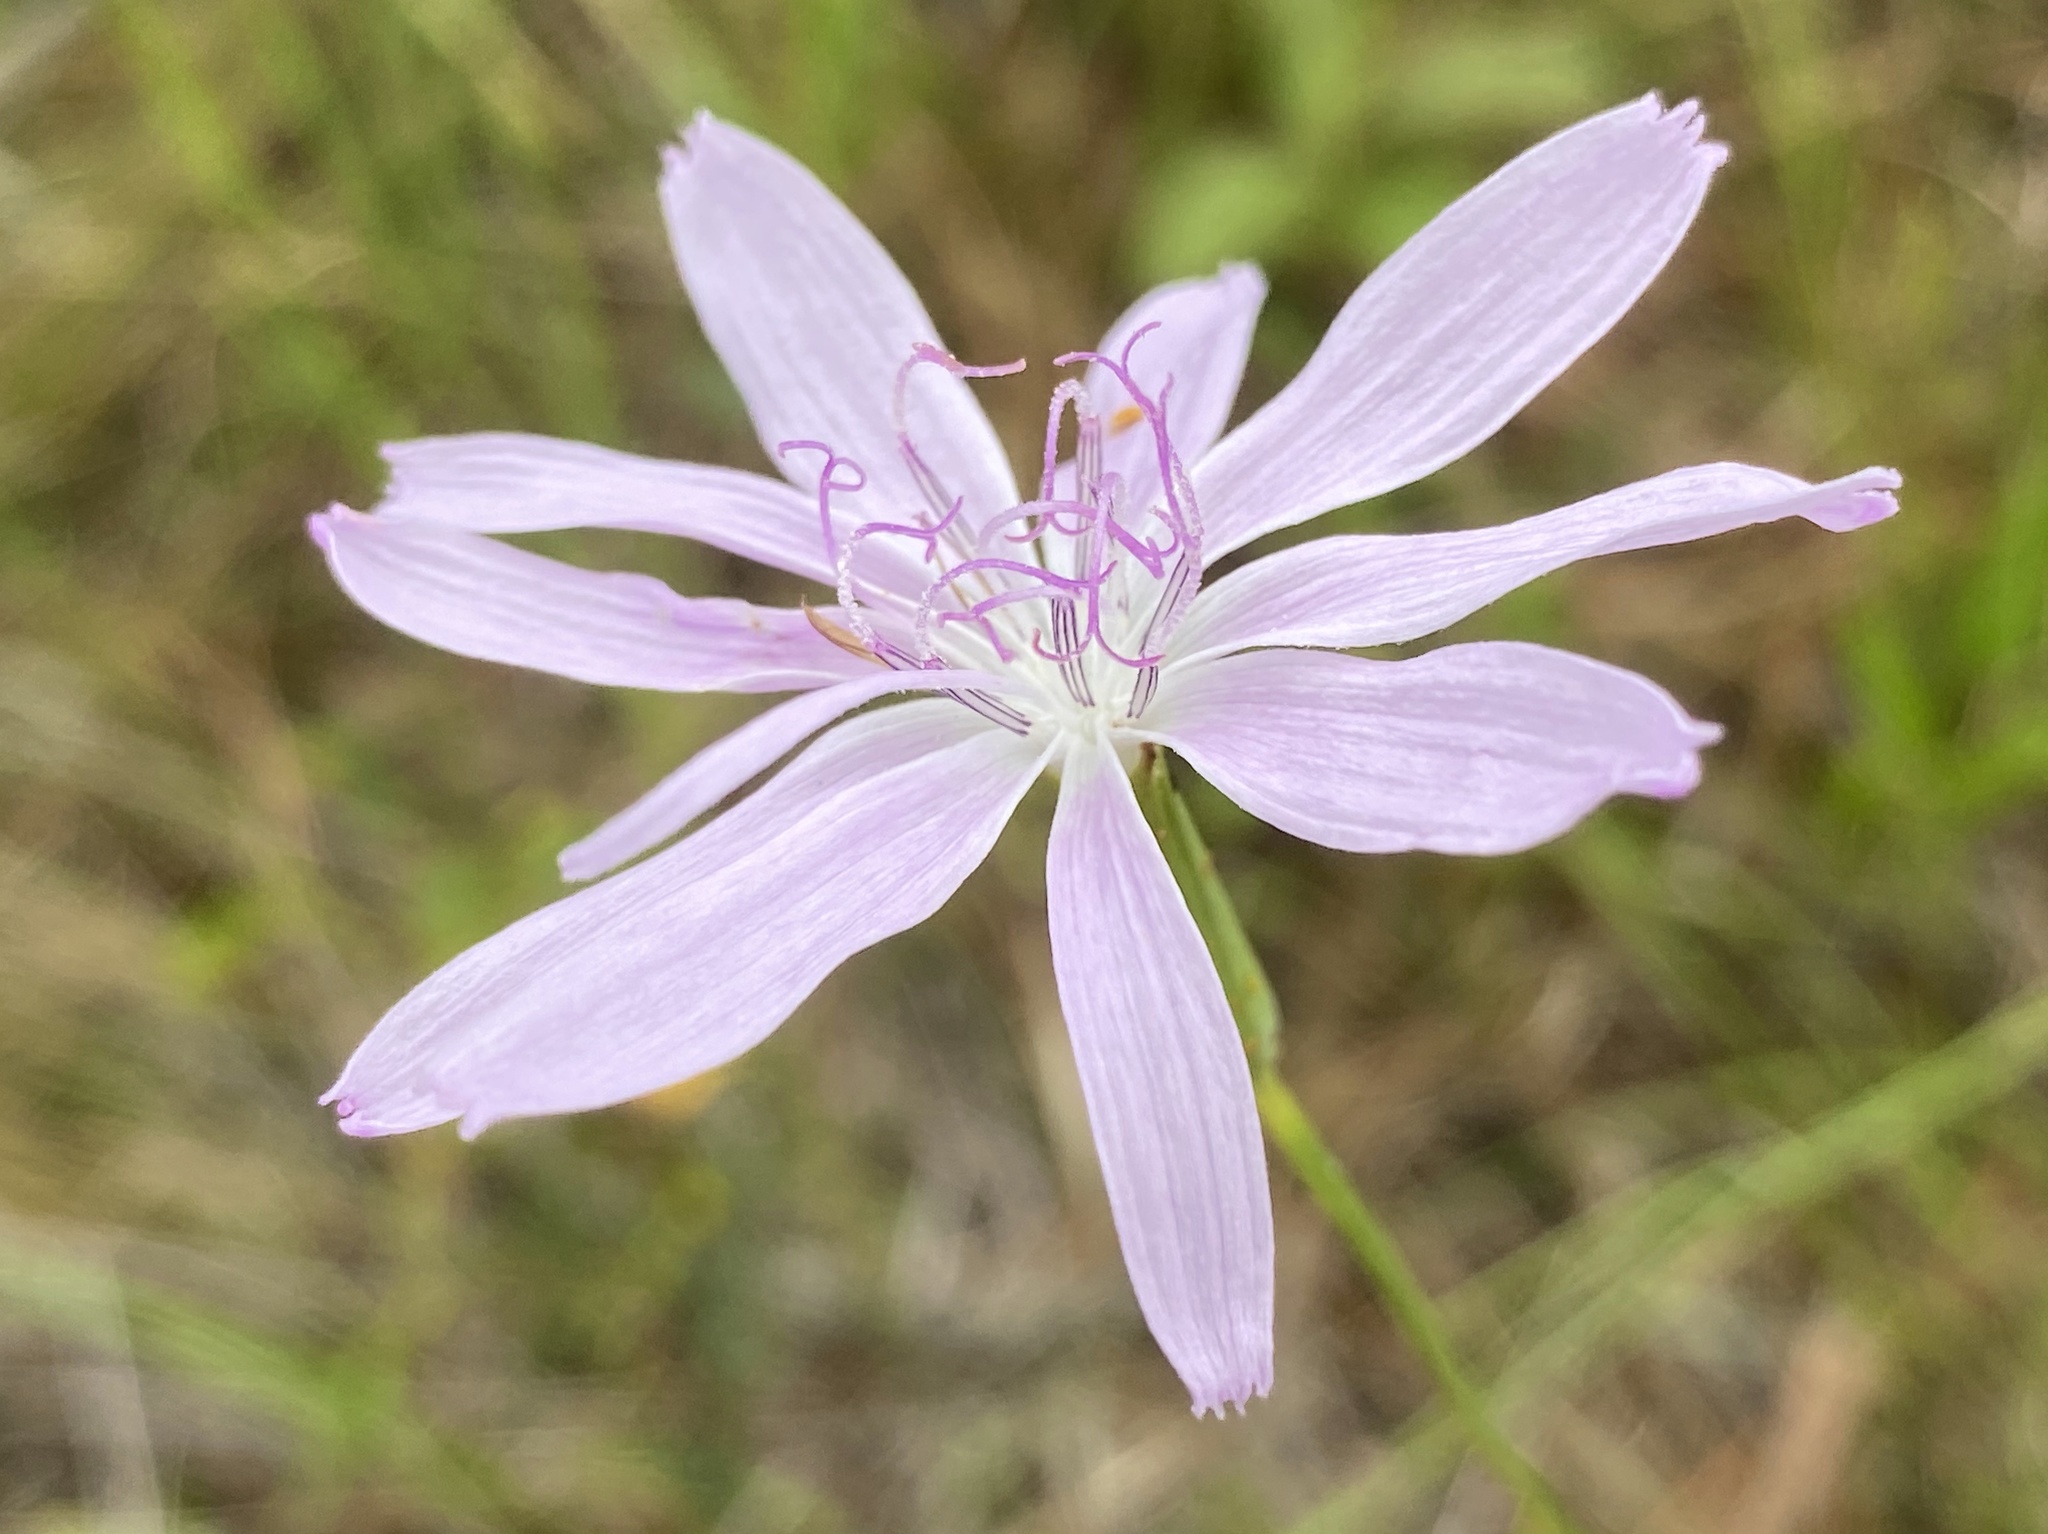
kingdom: Plantae
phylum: Tracheophyta
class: Magnoliopsida
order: Asterales
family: Asteraceae
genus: Lygodesmia
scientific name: Lygodesmia aphylla
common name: Rose-rush
